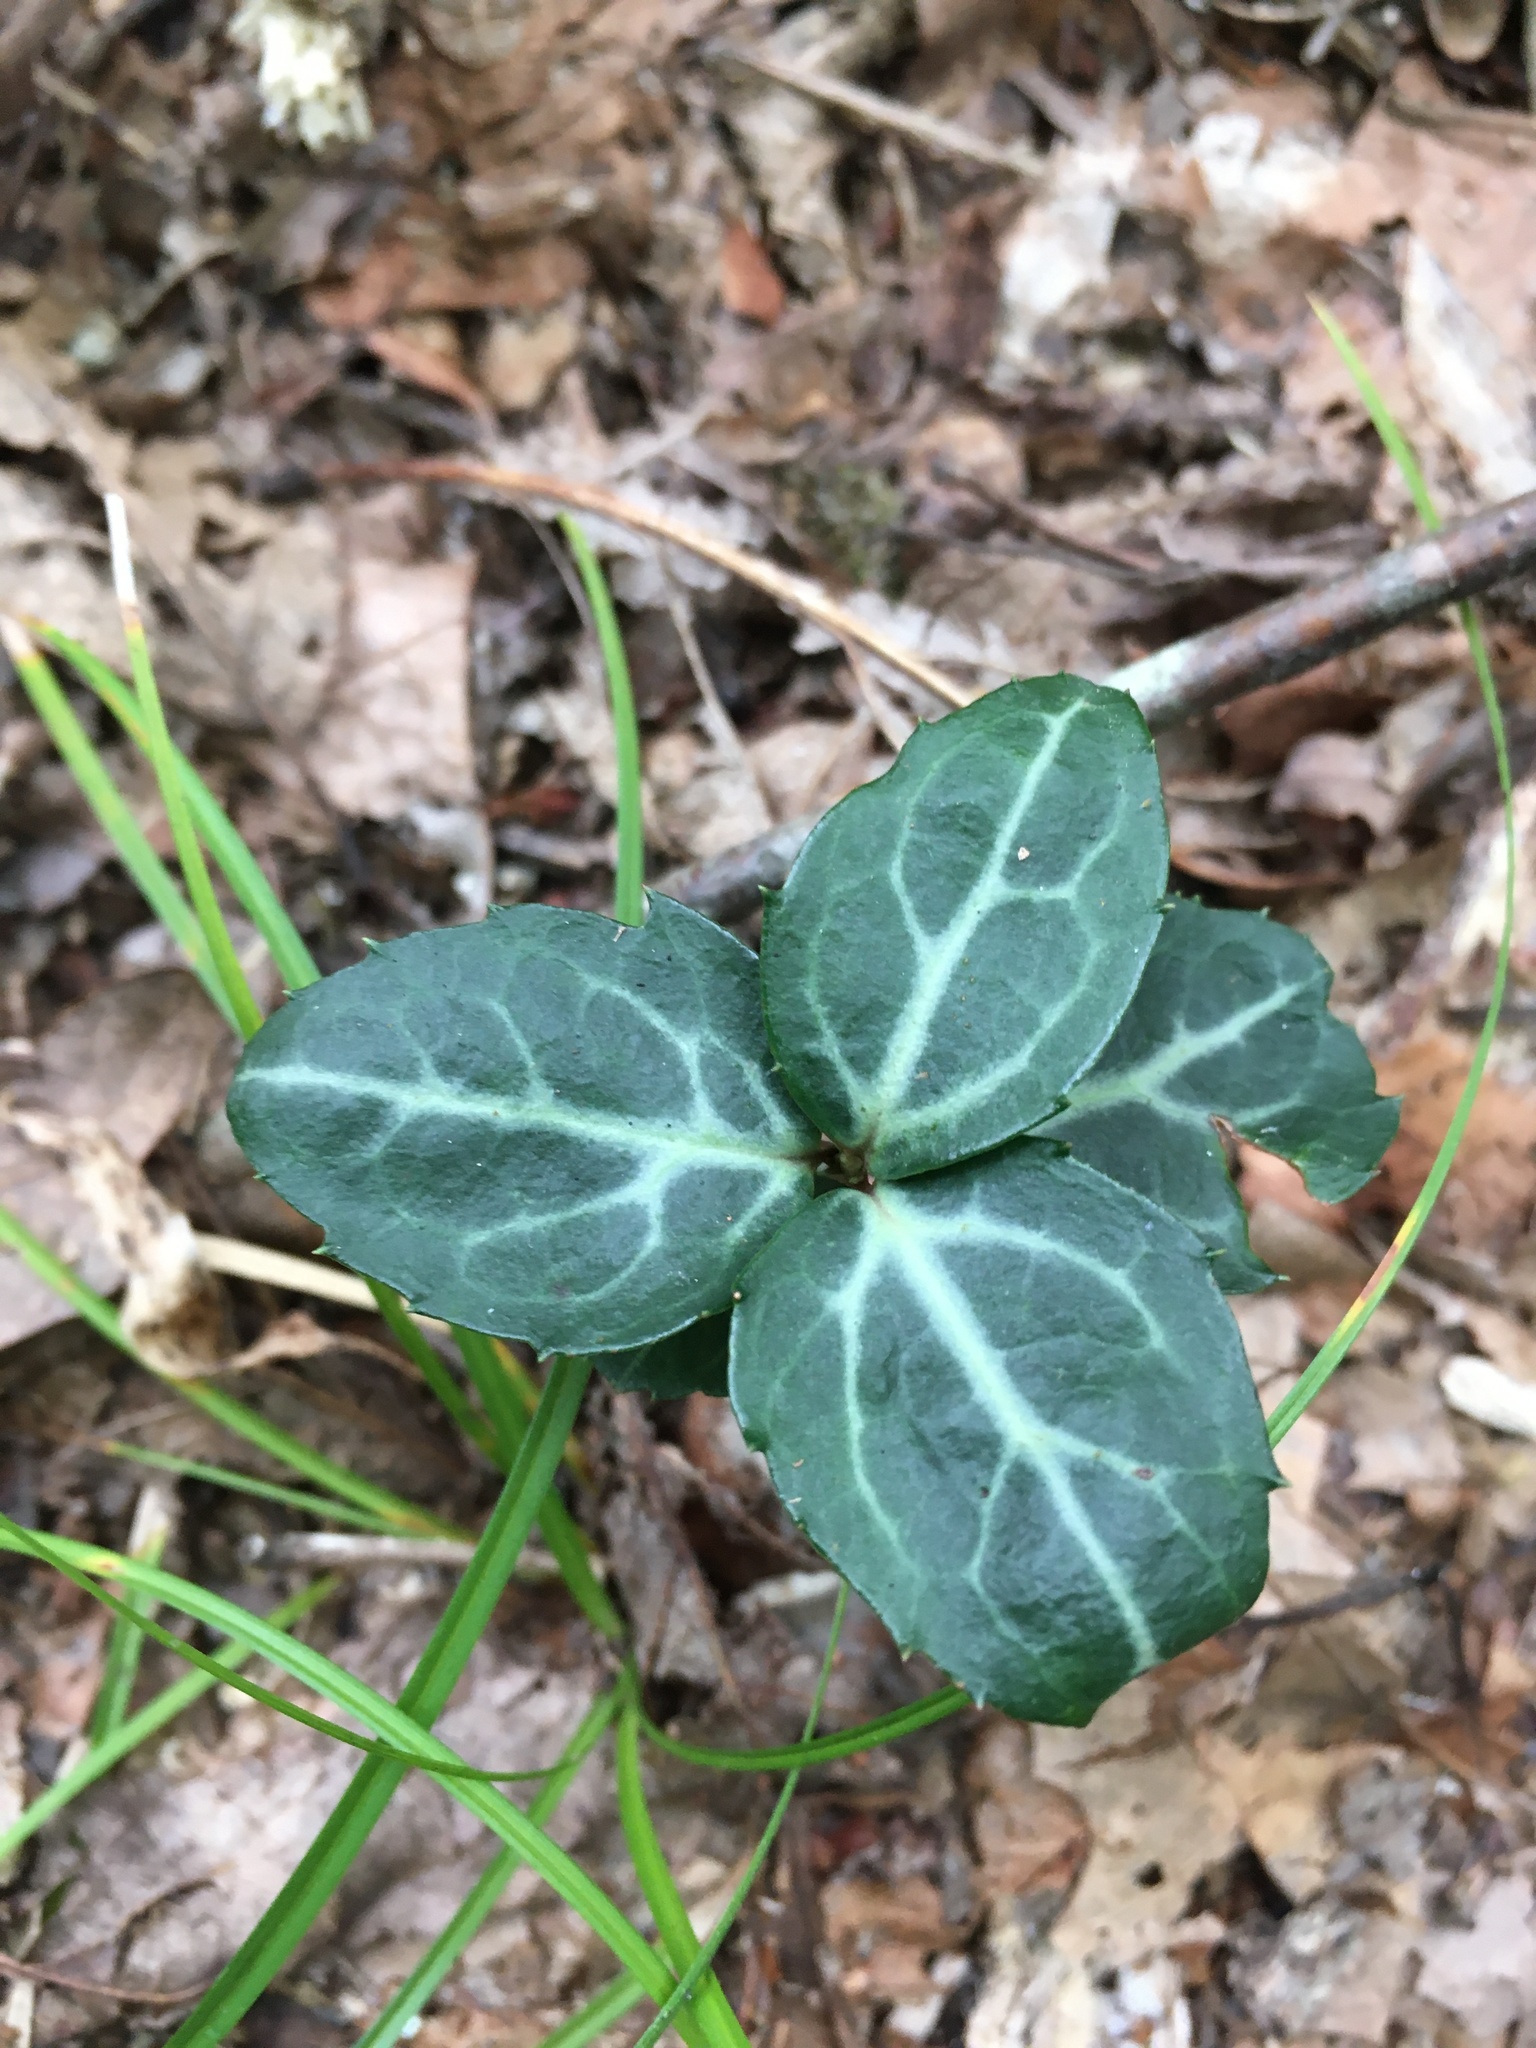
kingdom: Plantae
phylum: Tracheophyta
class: Magnoliopsida
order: Ericales
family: Ericaceae
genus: Chimaphila
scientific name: Chimaphila maculata
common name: Spotted pipsissewa
